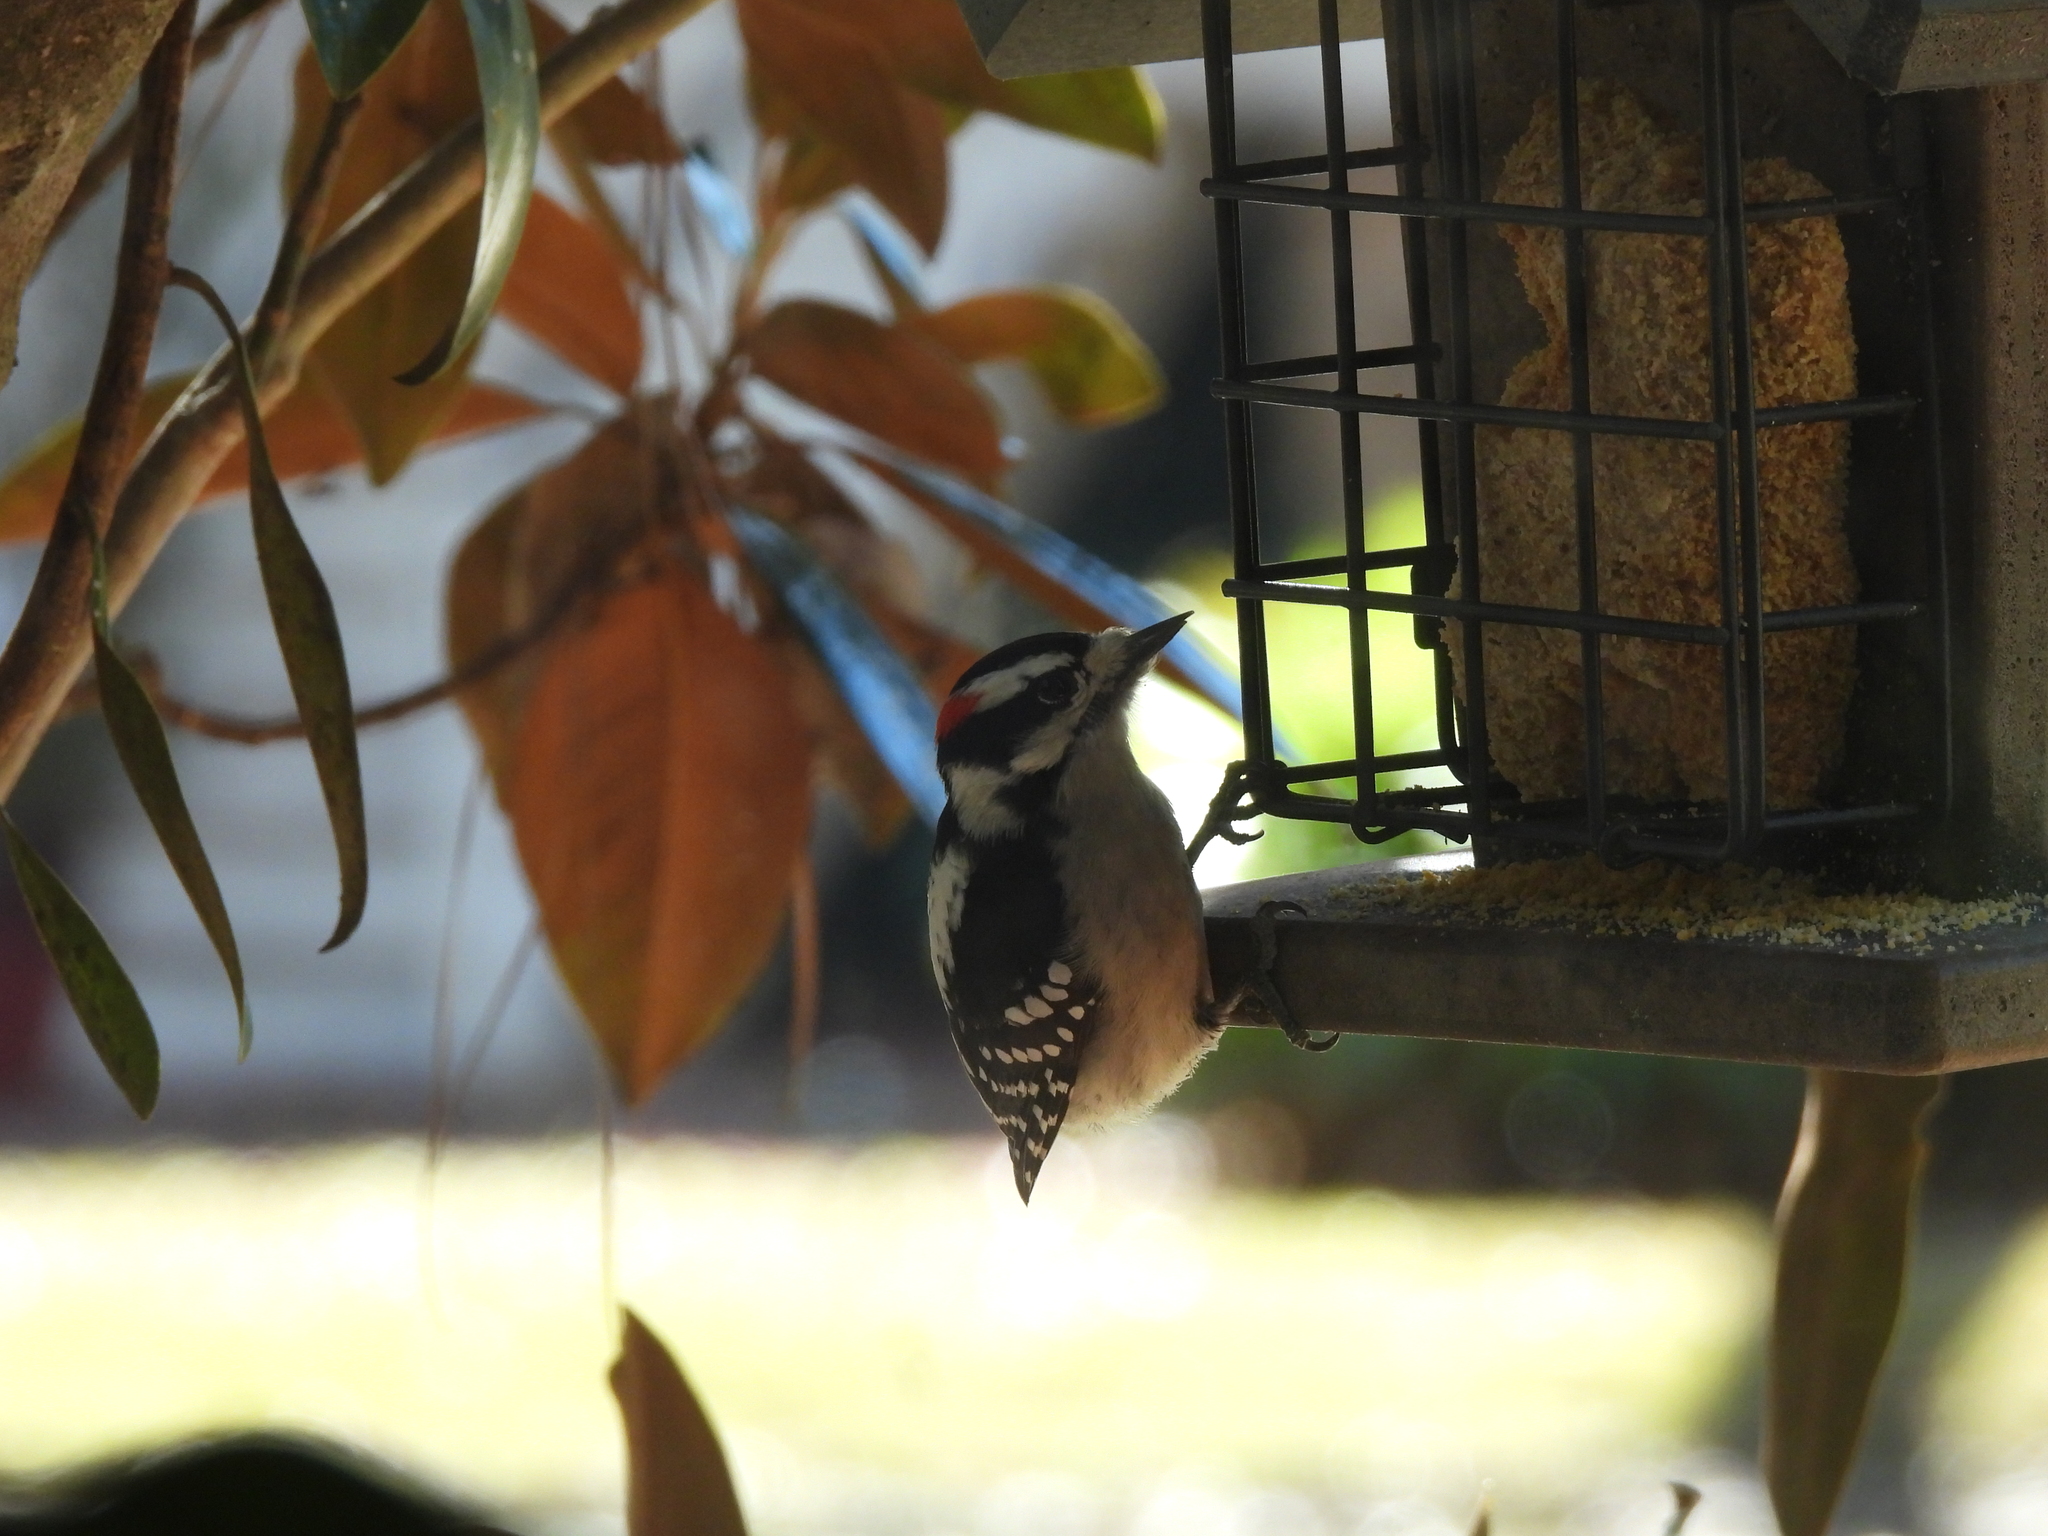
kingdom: Animalia
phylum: Chordata
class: Aves
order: Piciformes
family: Picidae
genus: Dryobates
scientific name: Dryobates pubescens
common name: Downy woodpecker
